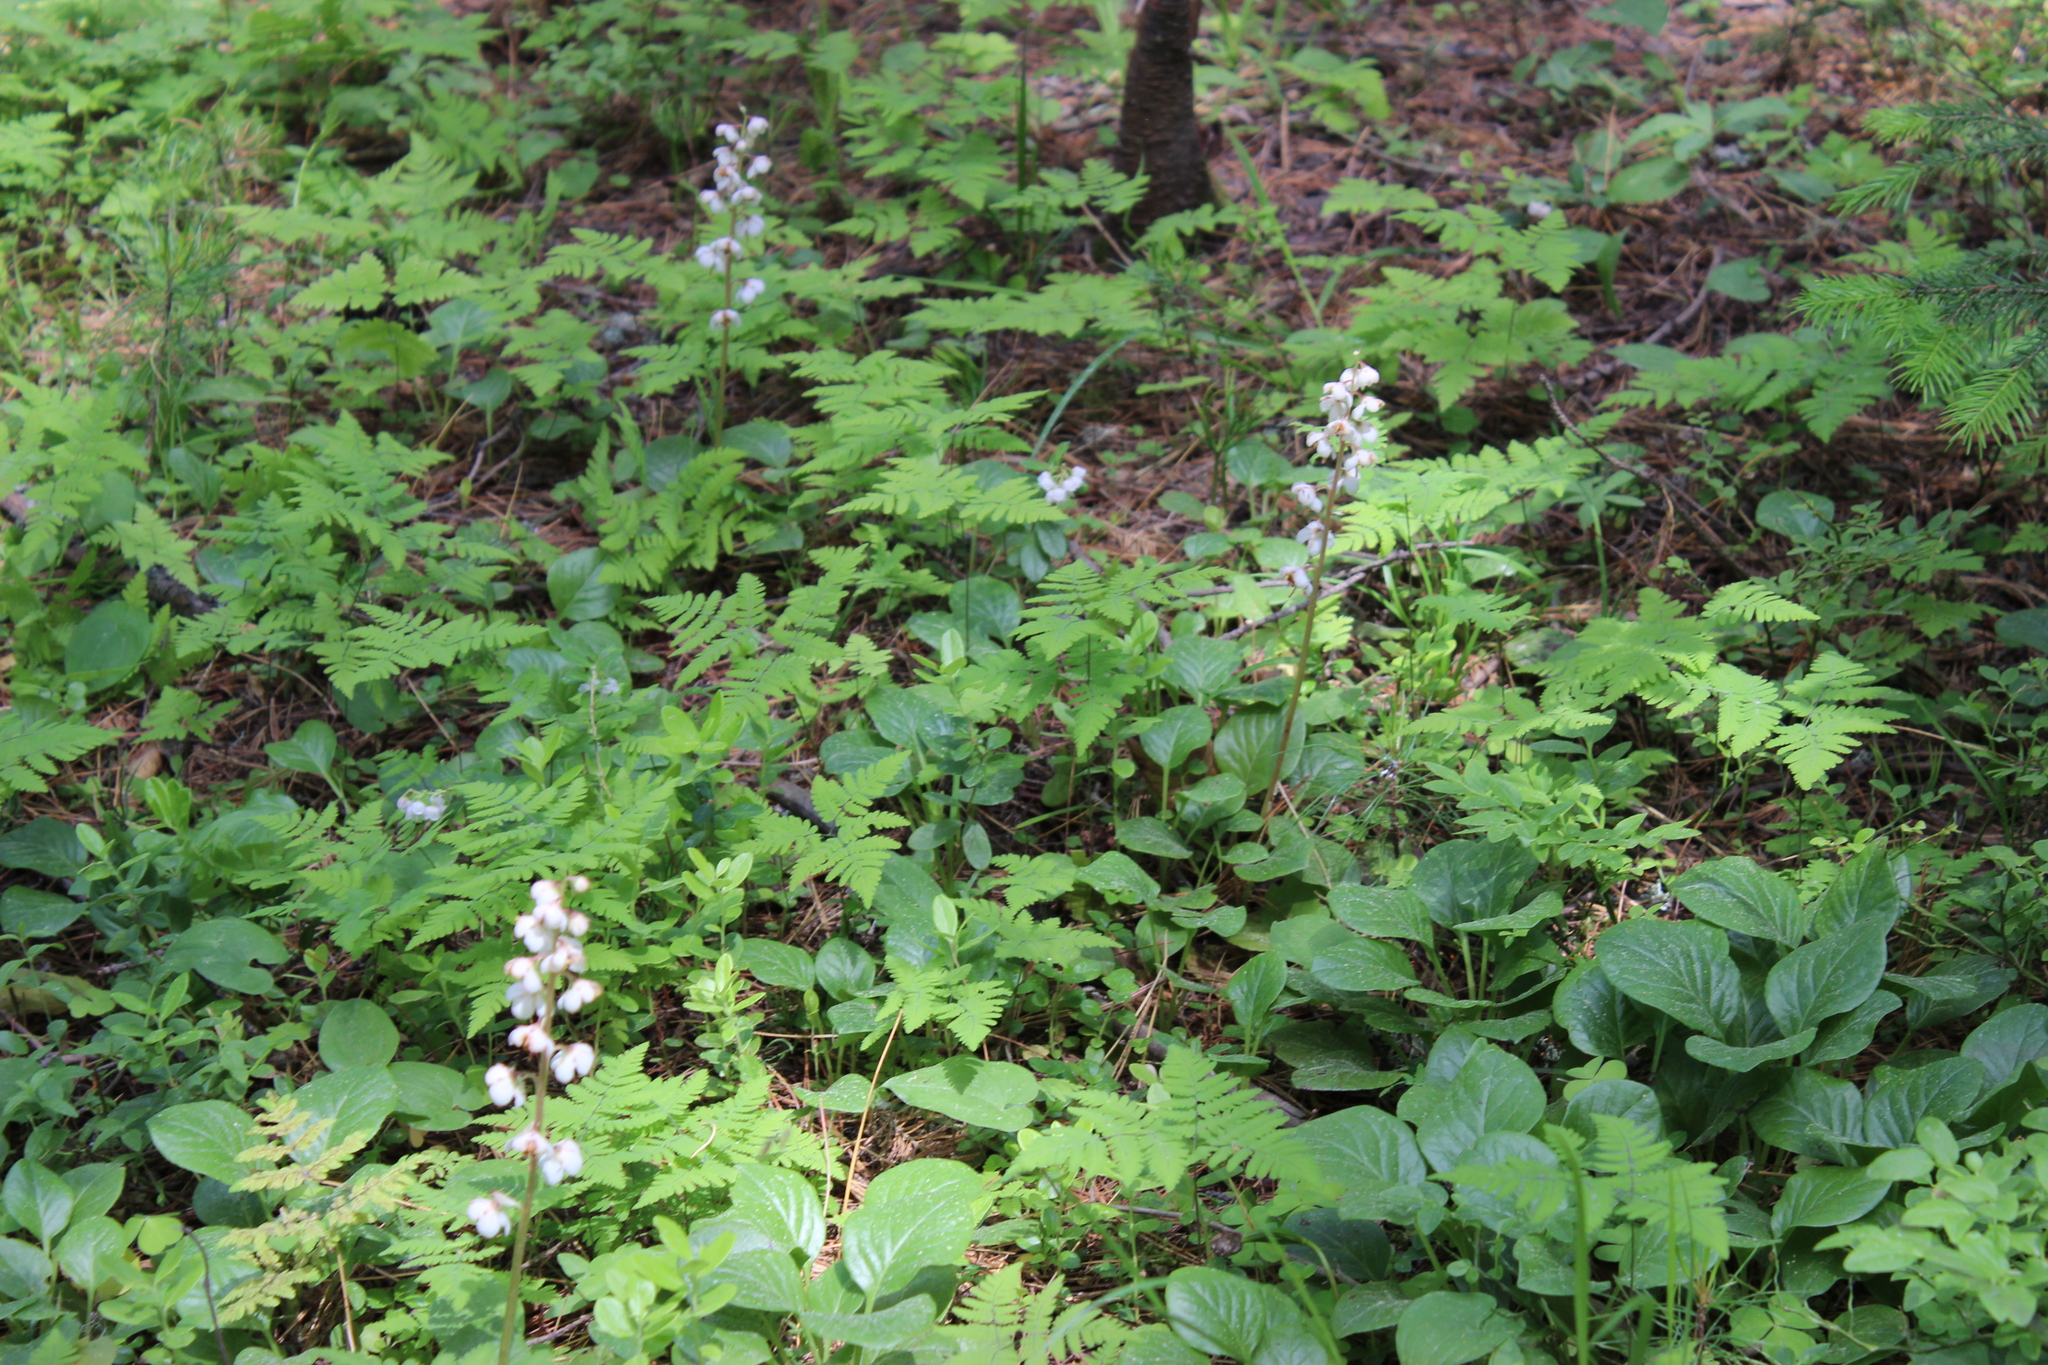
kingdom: Plantae
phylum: Tracheophyta
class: Magnoliopsida
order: Ericales
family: Ericaceae
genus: Pyrola
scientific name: Pyrola rotundifolia
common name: Round-leaved wintergreen
